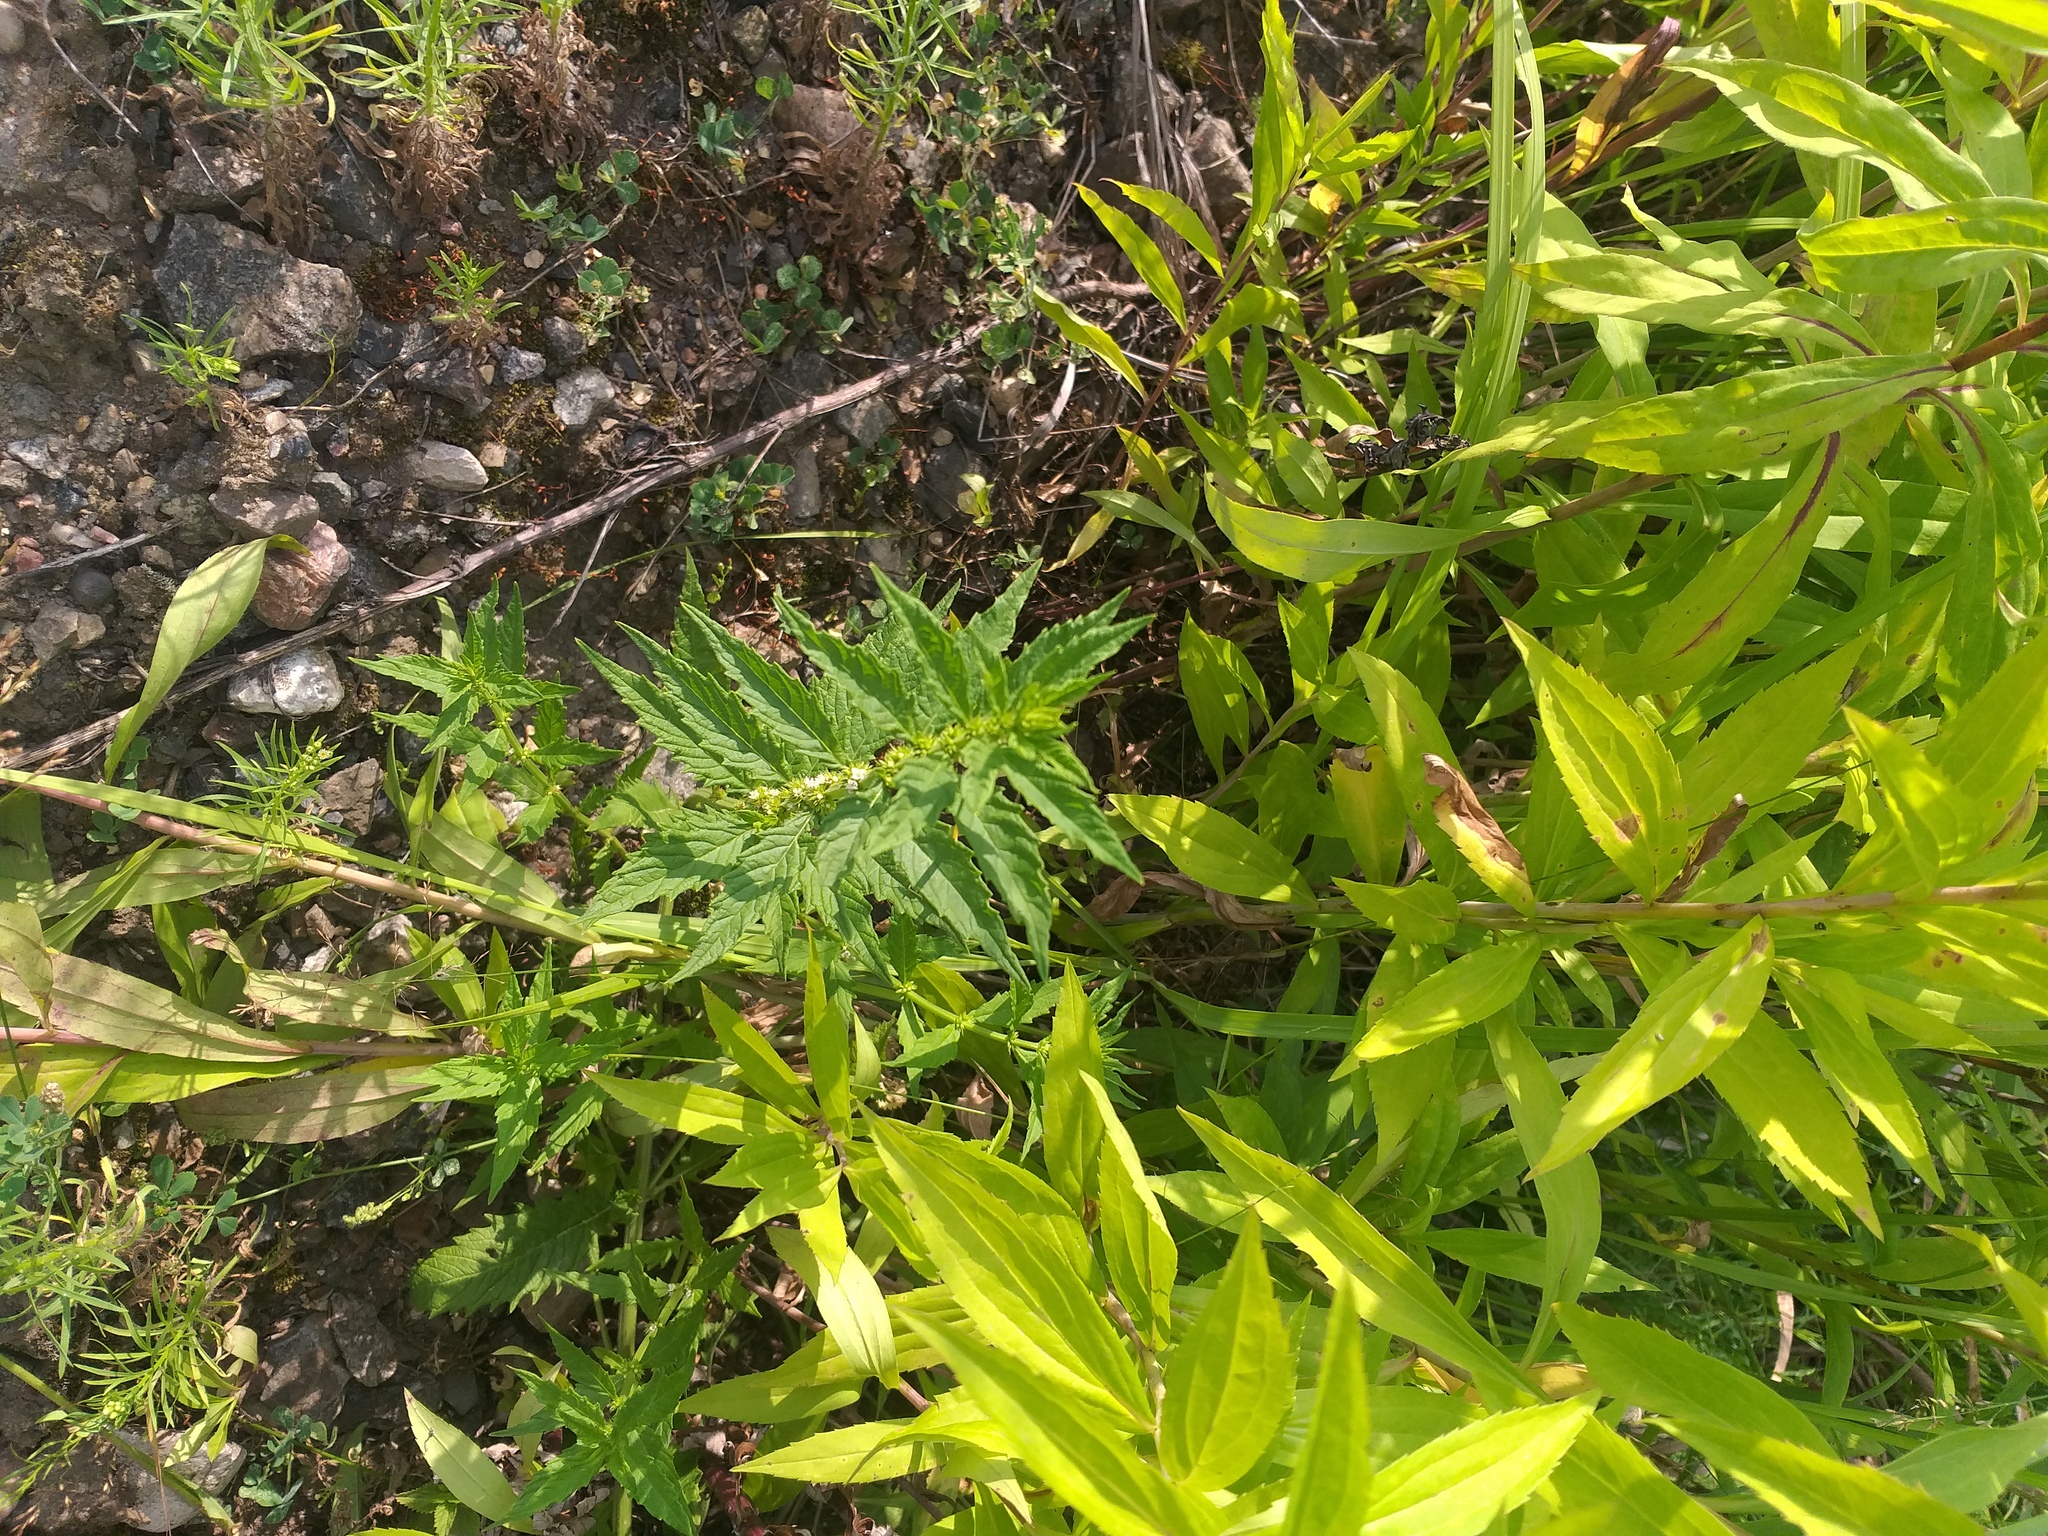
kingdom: Plantae
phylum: Tracheophyta
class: Magnoliopsida
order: Lamiales
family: Lamiaceae
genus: Lycopus
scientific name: Lycopus europaeus
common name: European bugleweed
